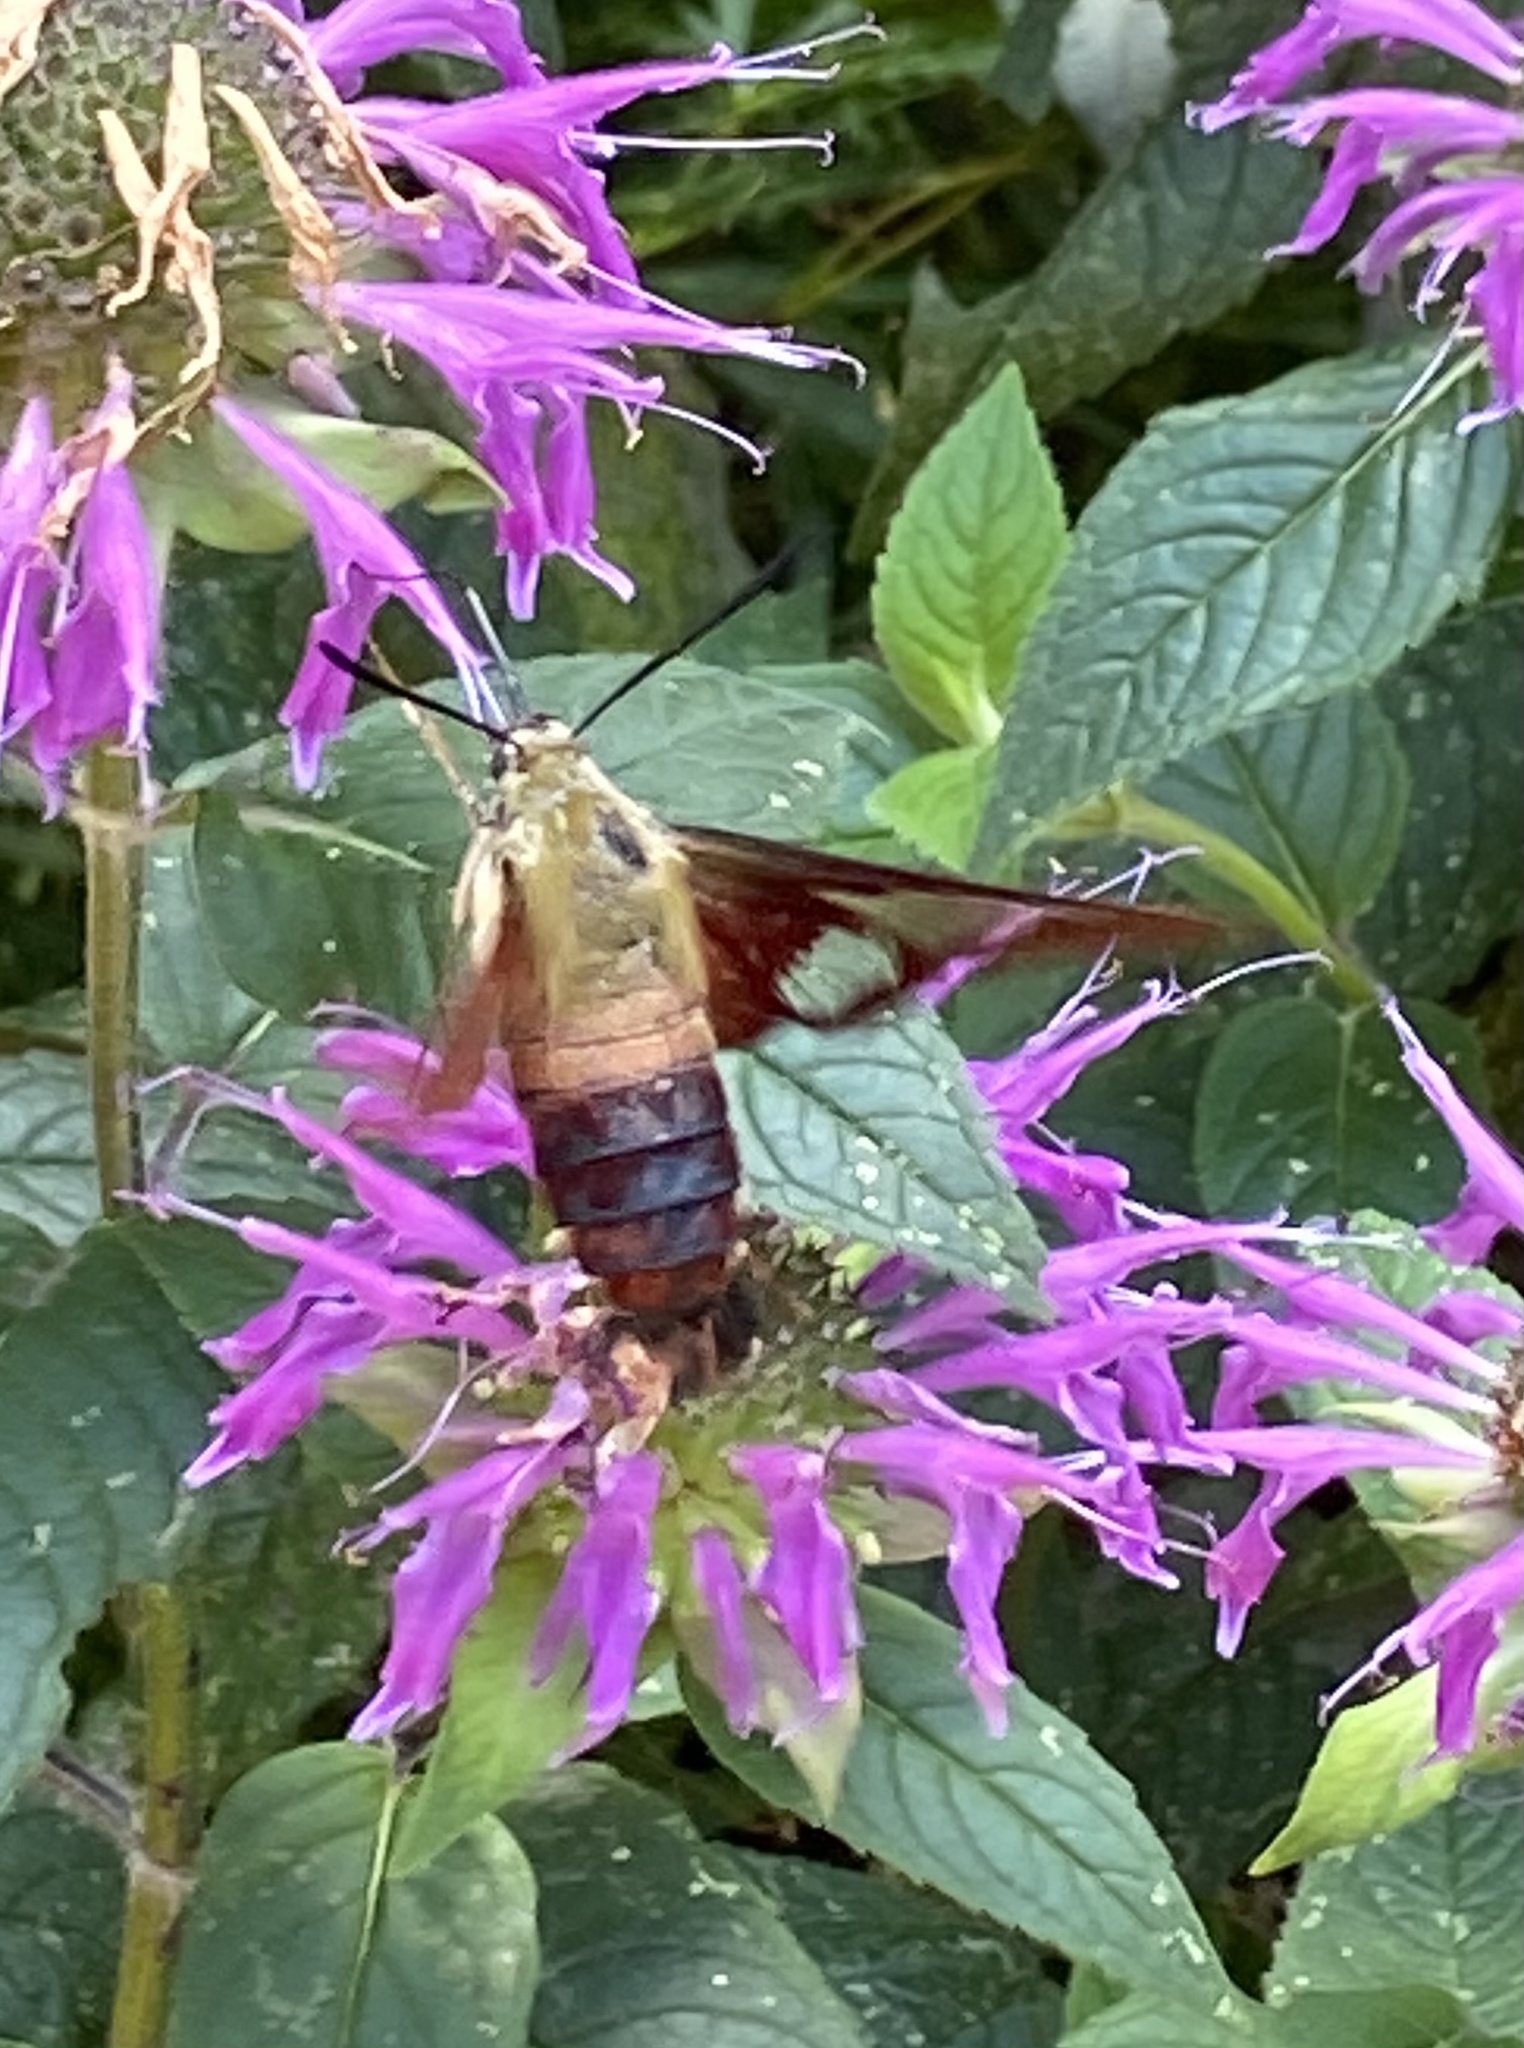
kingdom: Animalia
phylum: Arthropoda
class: Insecta
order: Lepidoptera
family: Sphingidae
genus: Hemaris
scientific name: Hemaris thysbe
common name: Common clear-wing
